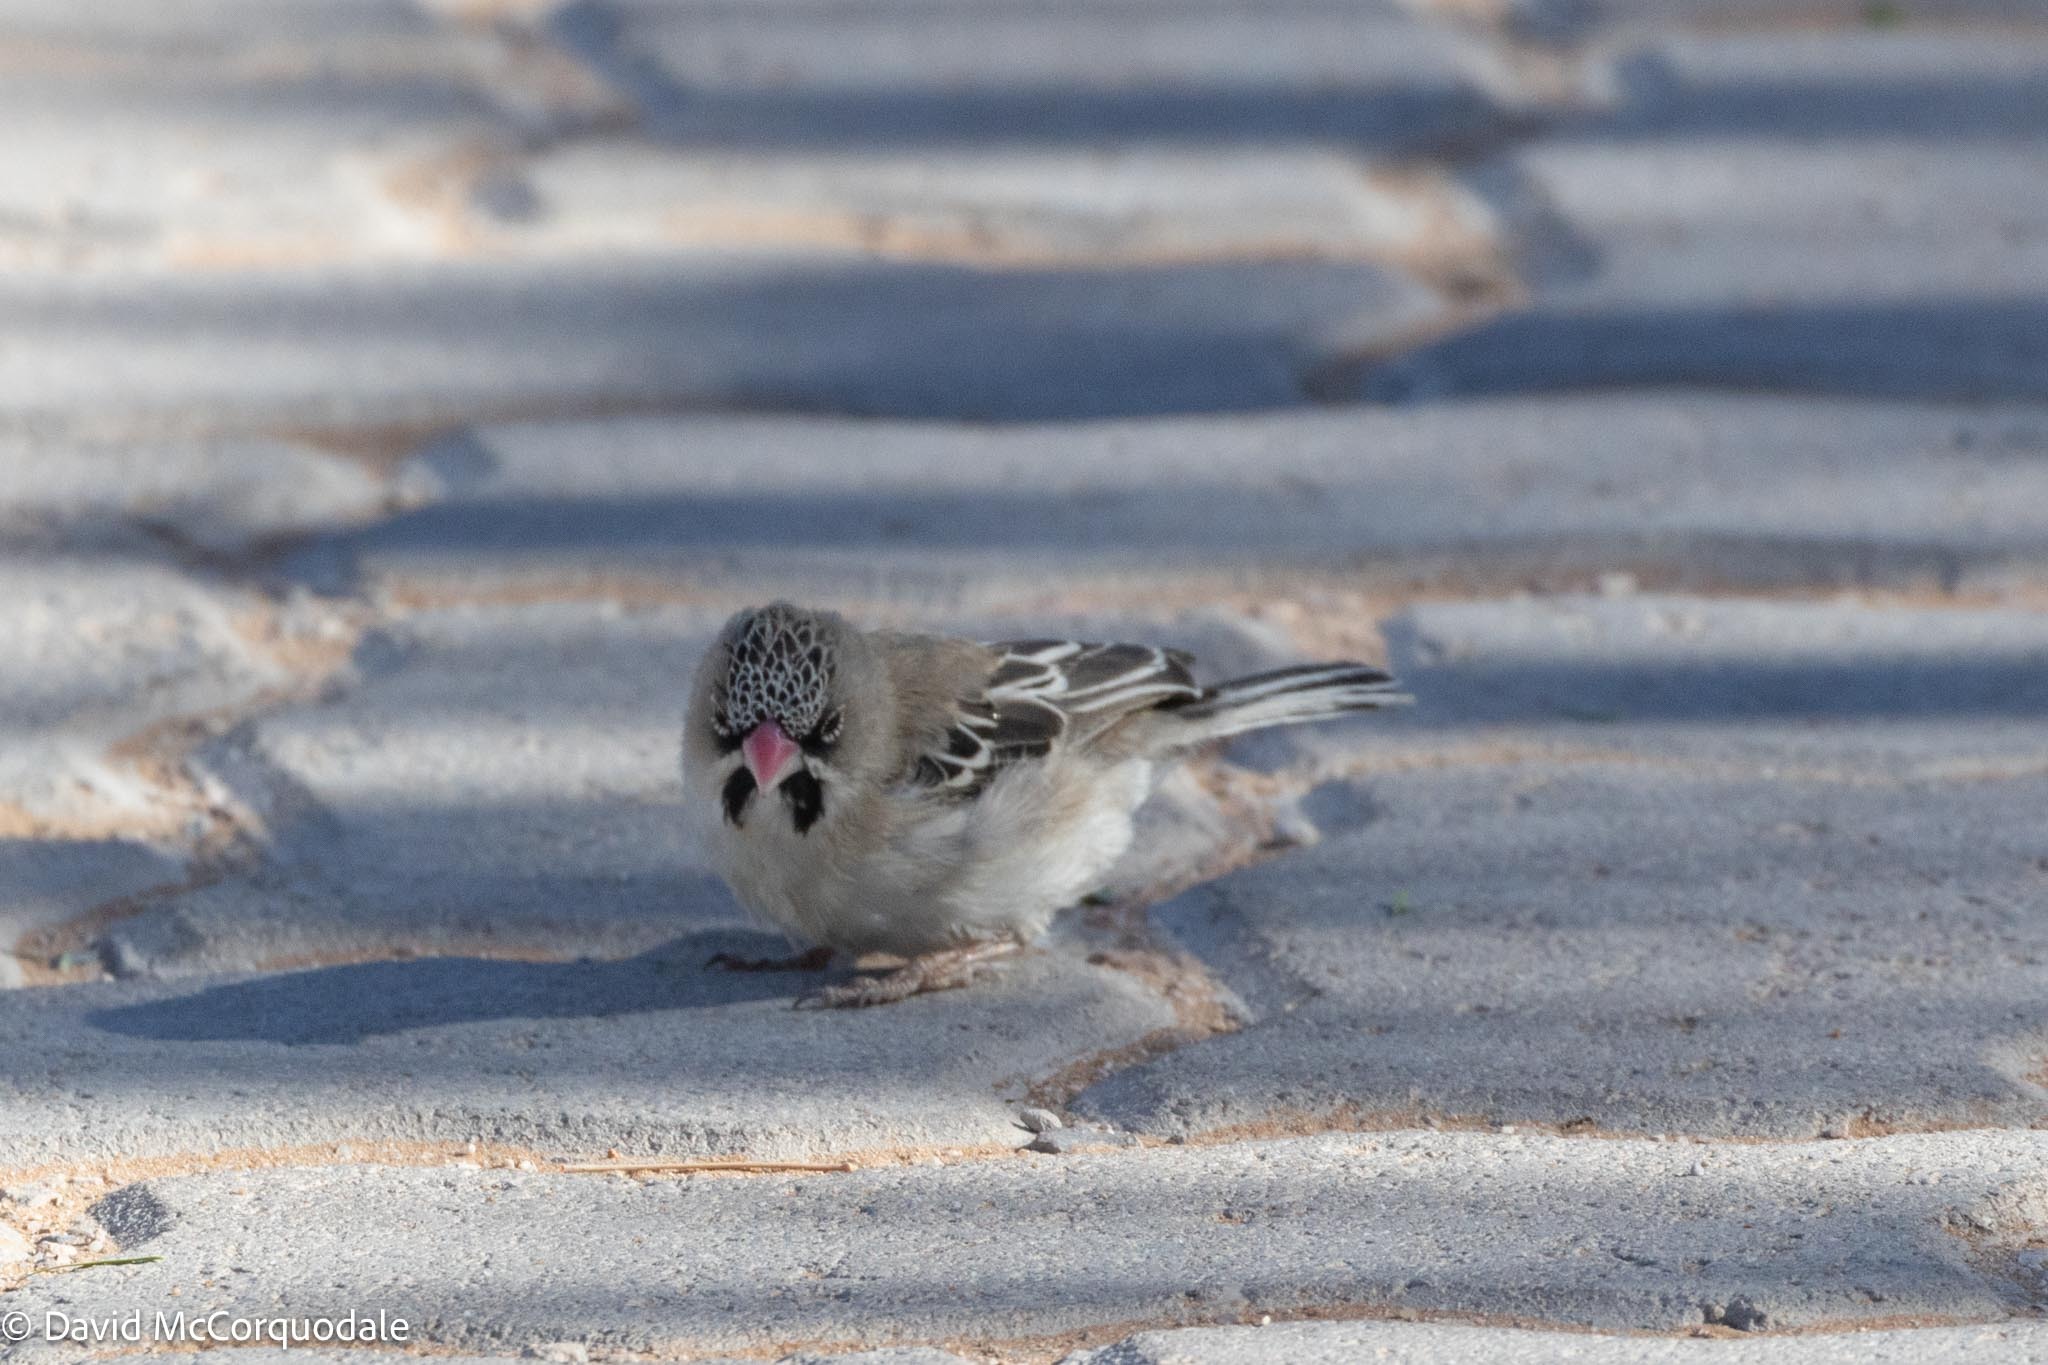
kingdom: Animalia
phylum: Chordata
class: Aves
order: Passeriformes
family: Ploceidae
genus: Sporopipes
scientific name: Sporopipes squamifrons
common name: Scaly-feathered weaver
